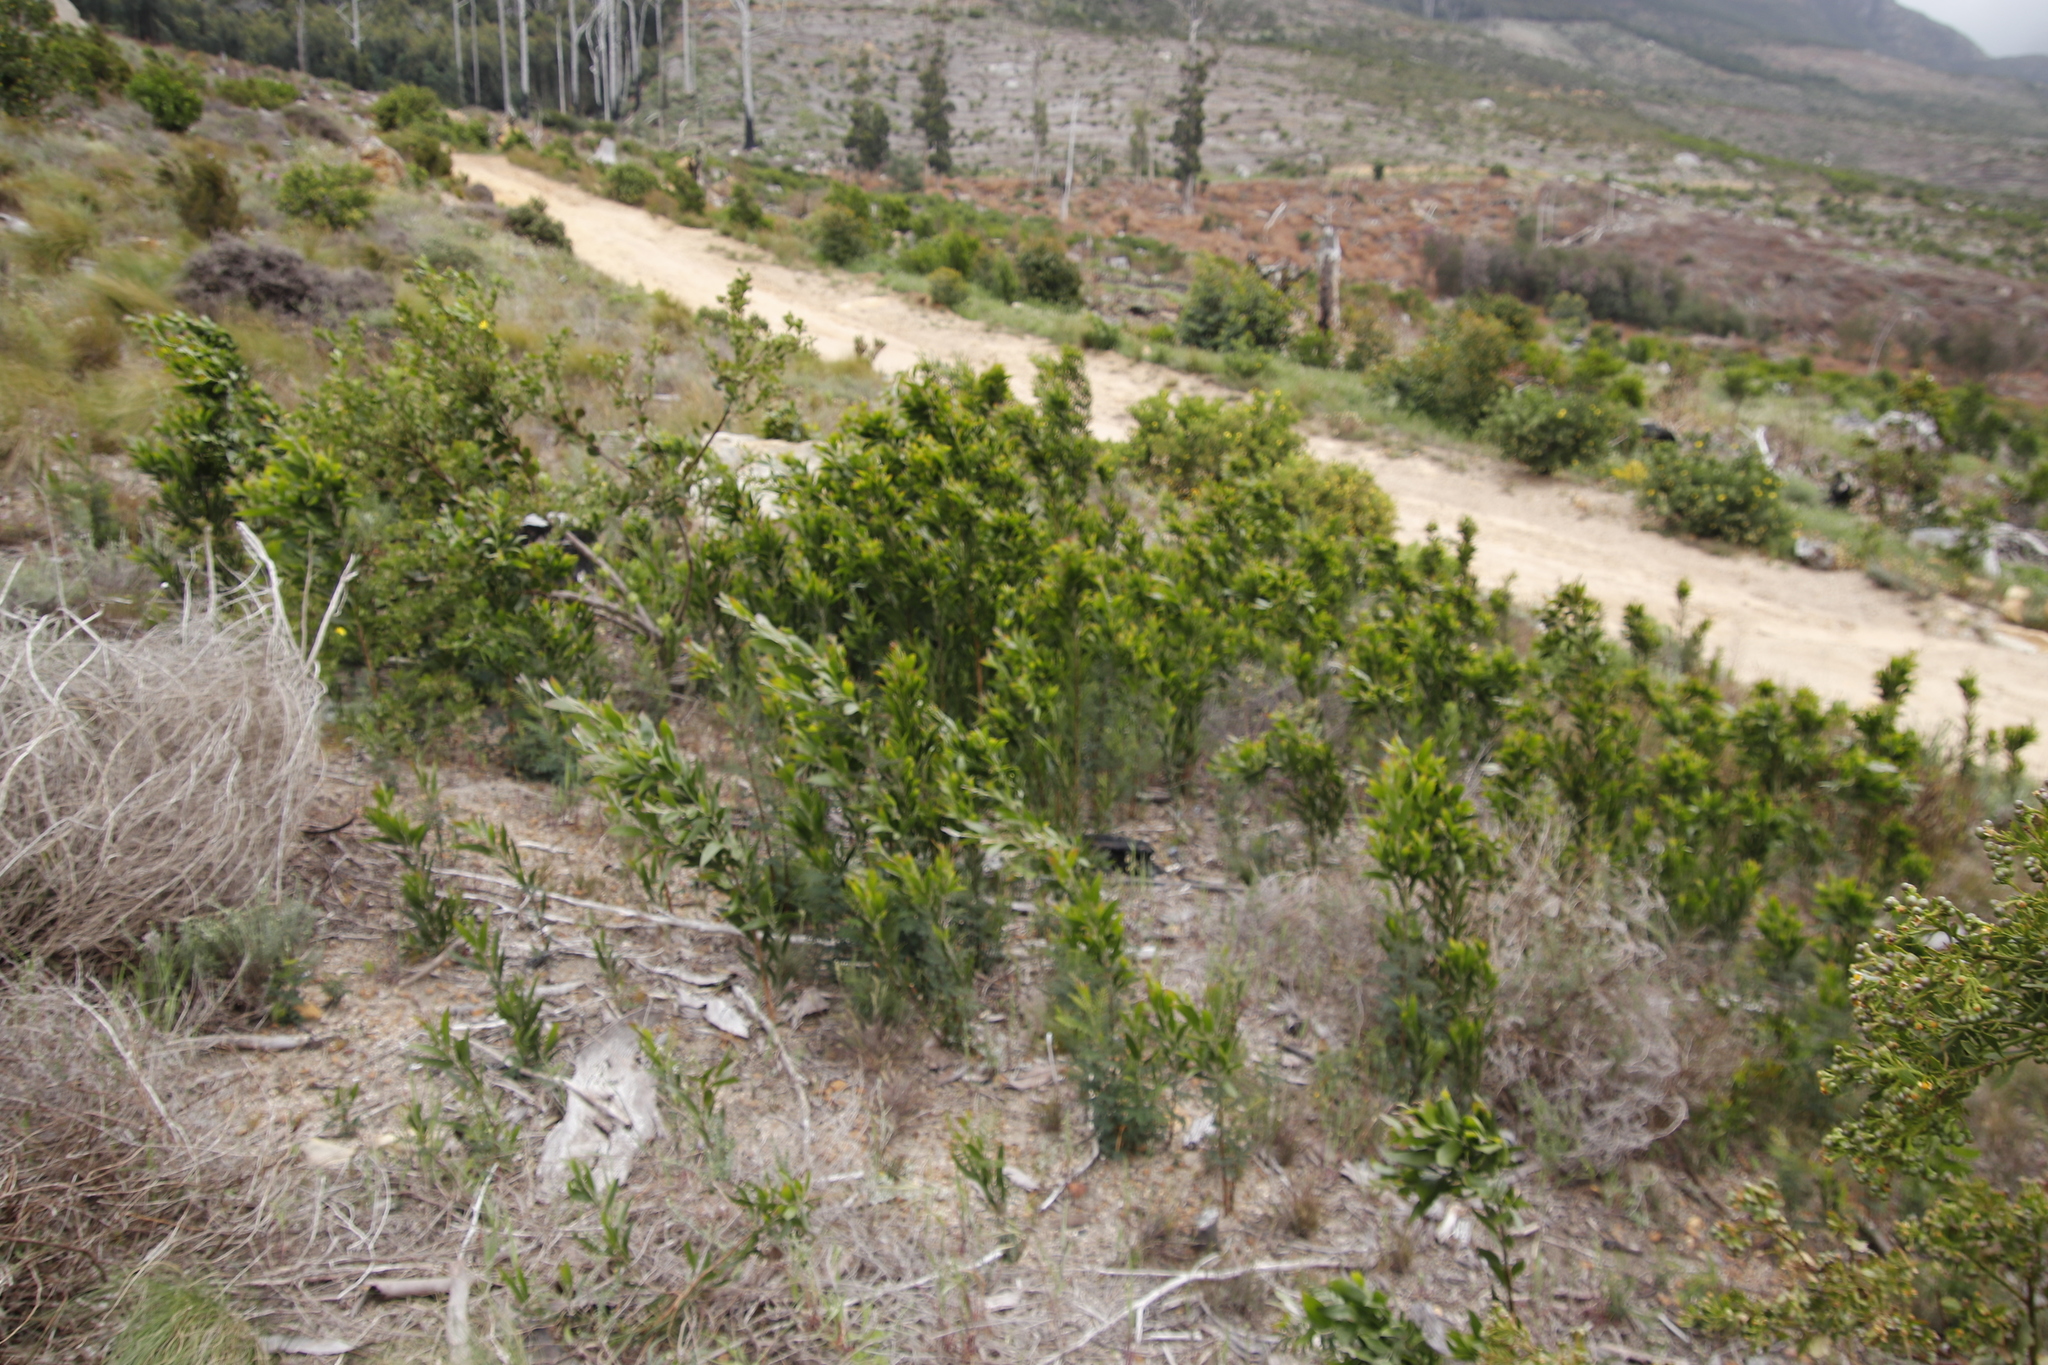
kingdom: Plantae
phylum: Tracheophyta
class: Magnoliopsida
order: Fabales
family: Fabaceae
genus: Acacia
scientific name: Acacia melanoxylon
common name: Blackwood
